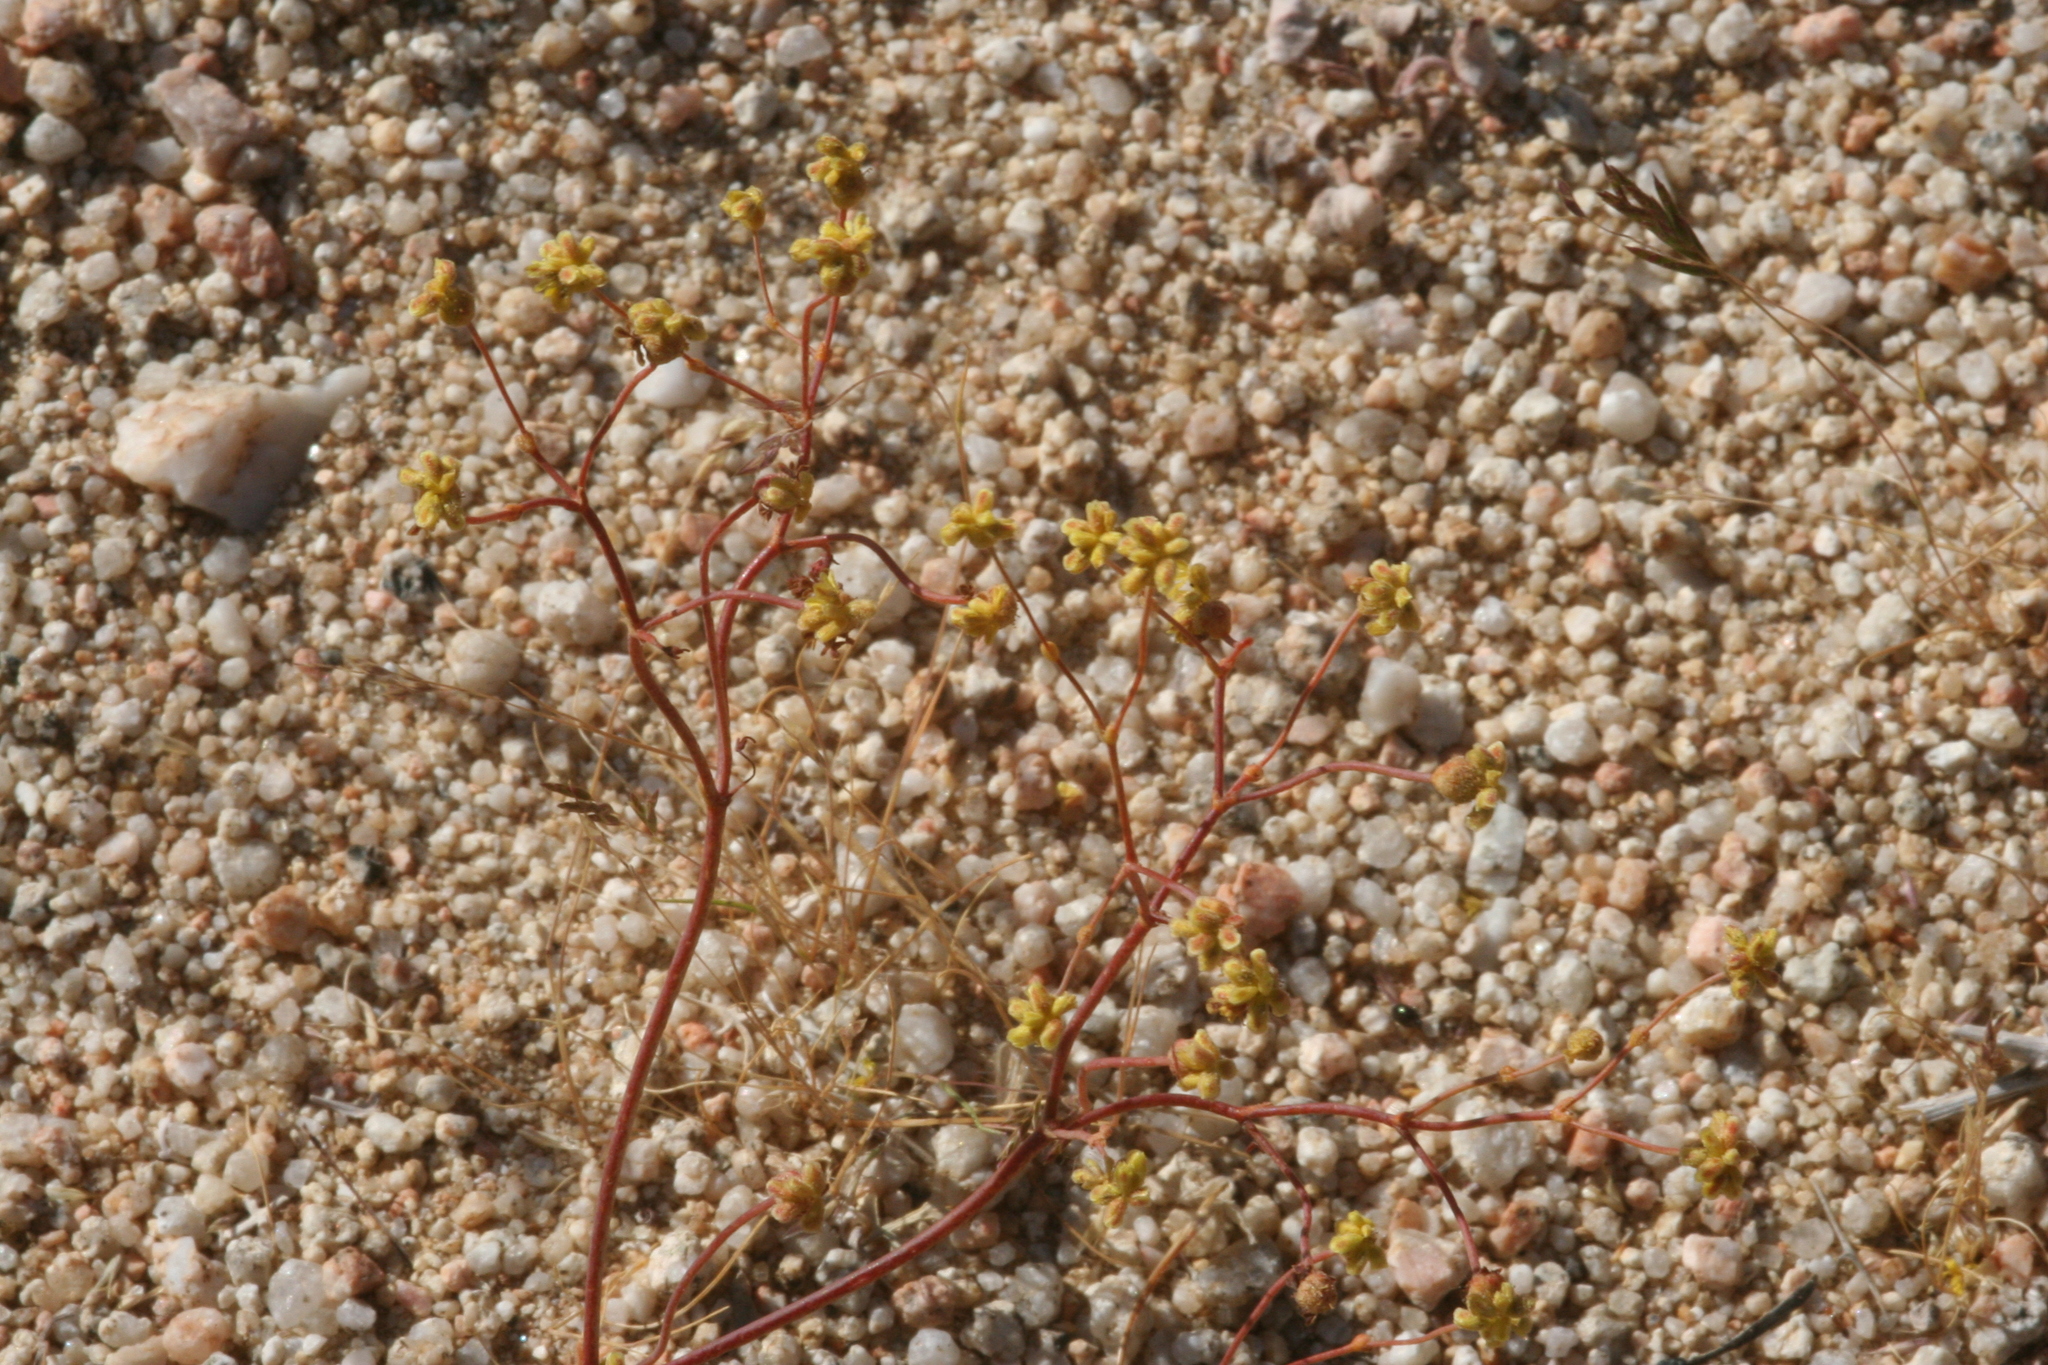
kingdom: Plantae
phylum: Tracheophyta
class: Magnoliopsida
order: Caryophyllales
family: Polygonaceae
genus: Eriogonum
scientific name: Eriogonum pusillum
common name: Yellow turbans
